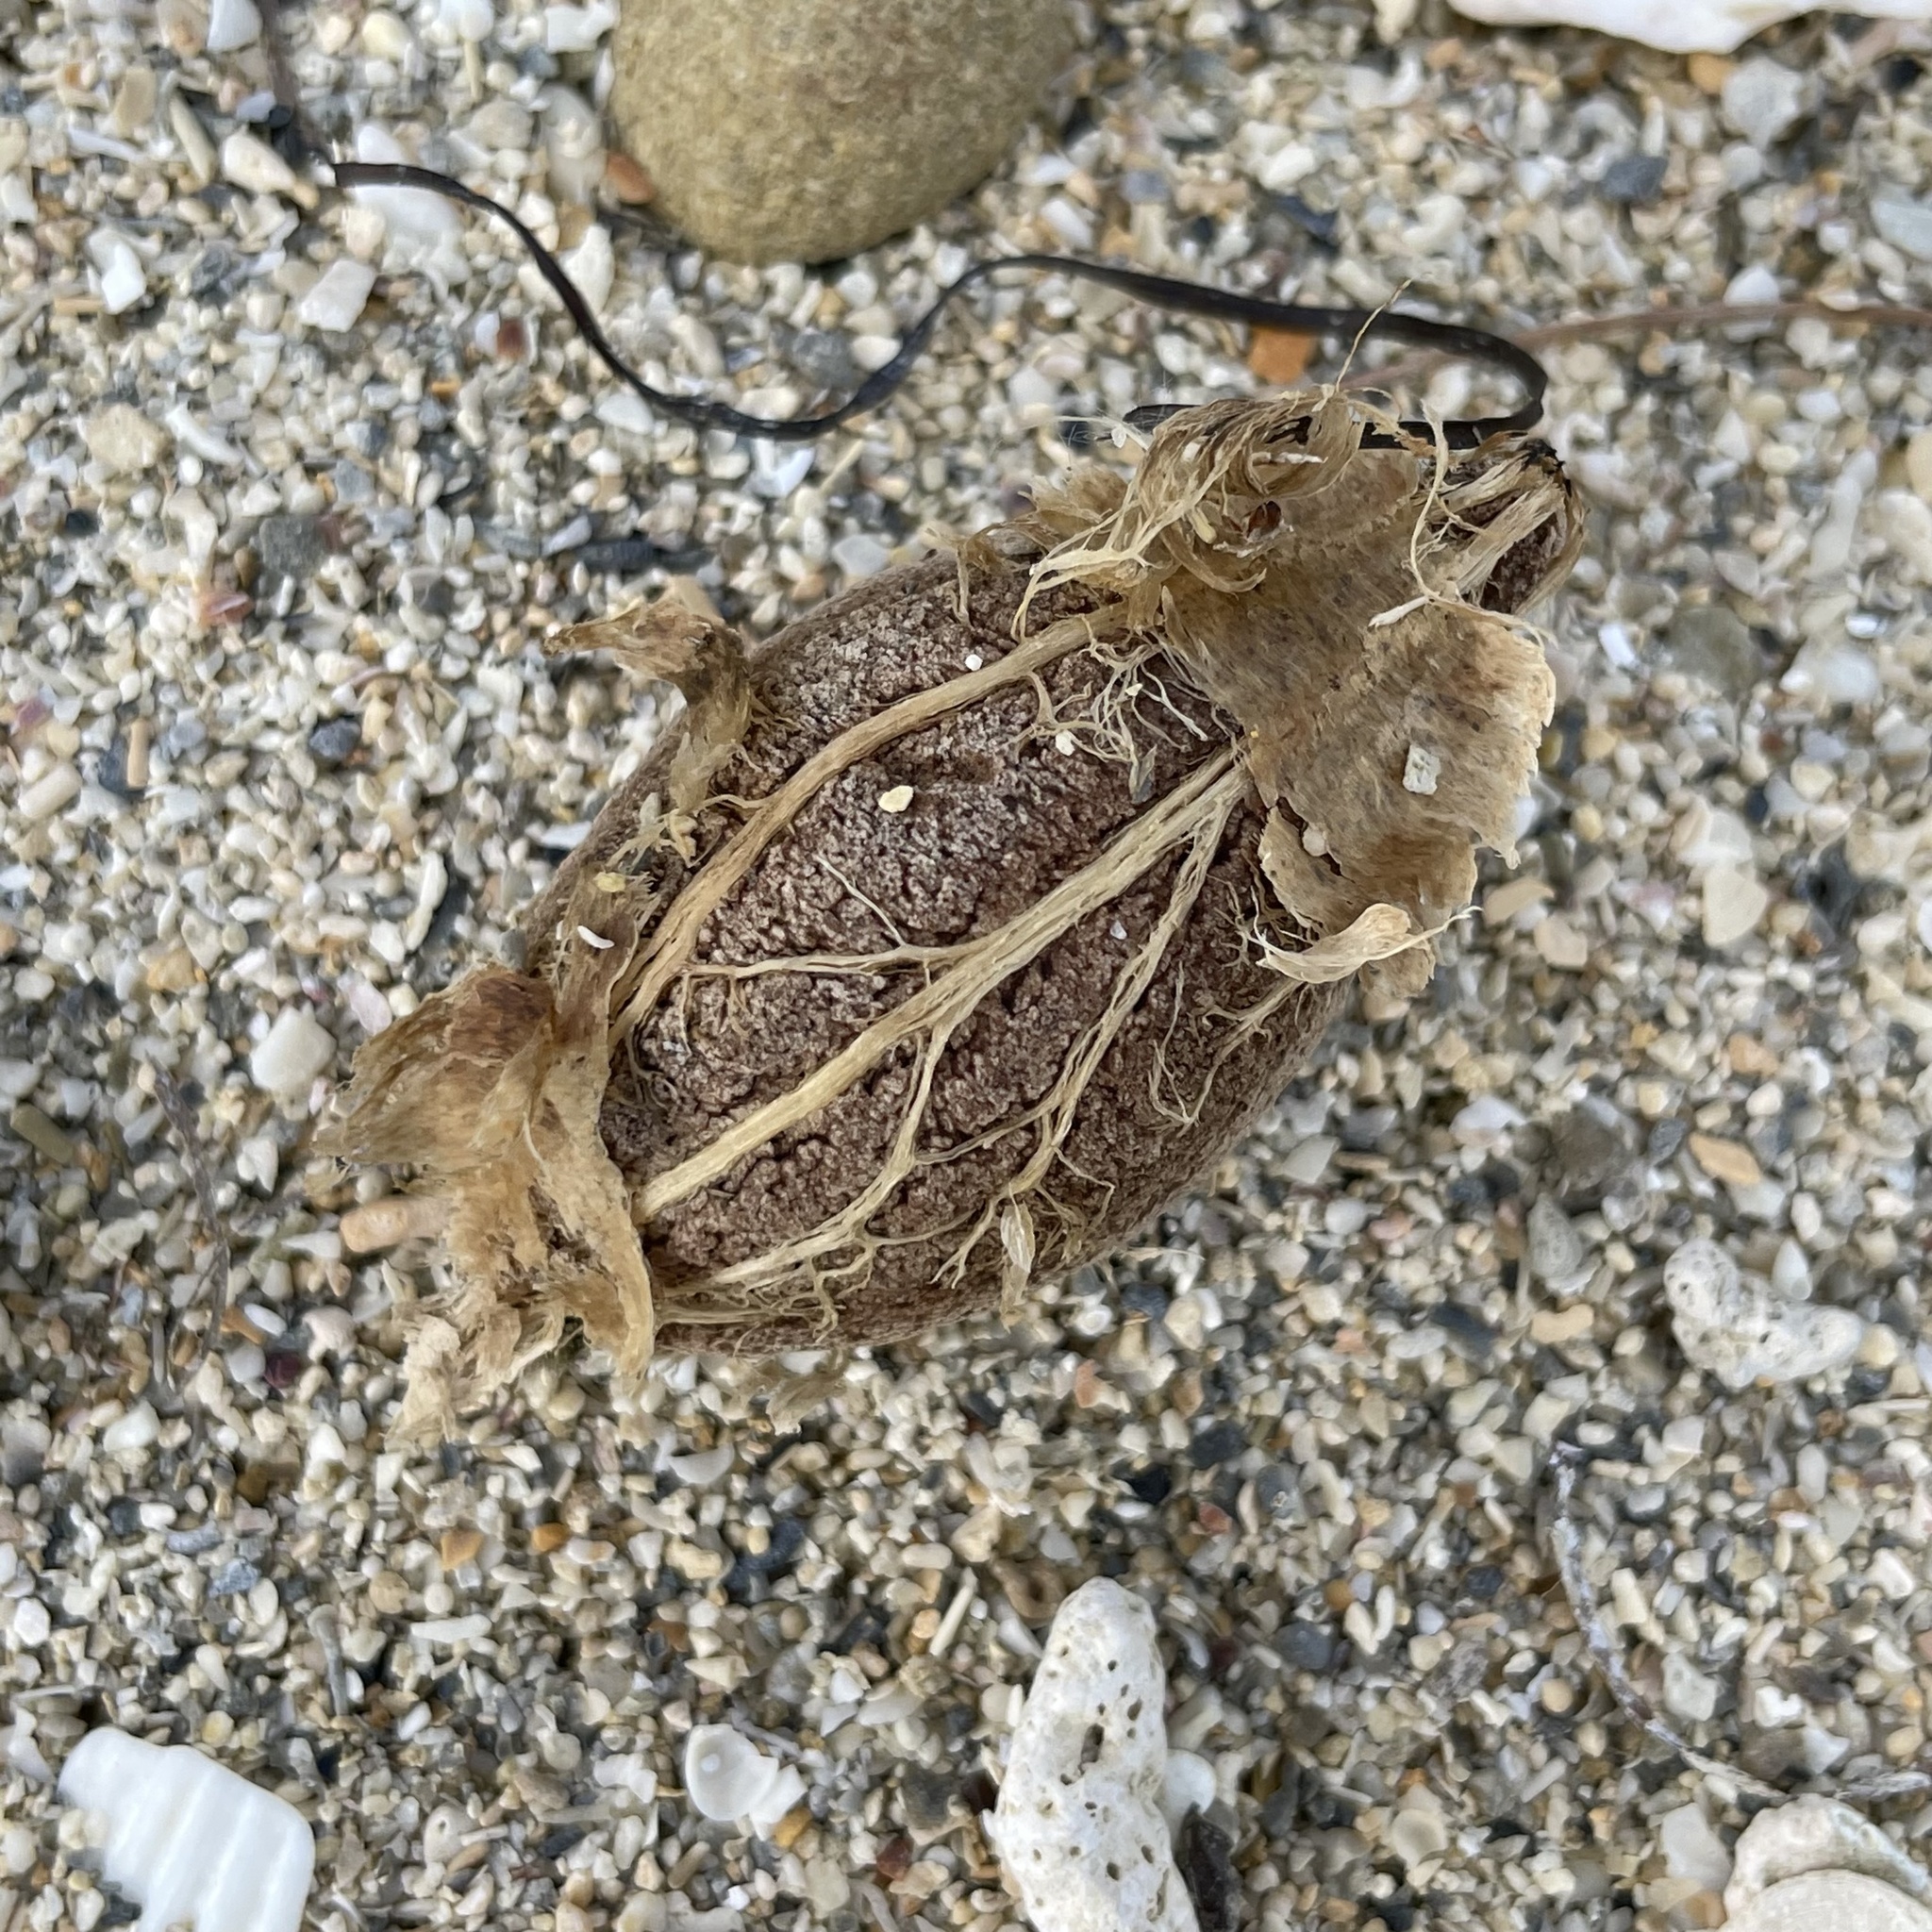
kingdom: Plantae
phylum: Tracheophyta
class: Magnoliopsida
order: Myrtales
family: Combretaceae
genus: Terminalia
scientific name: Terminalia catappa
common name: Tropical almond
